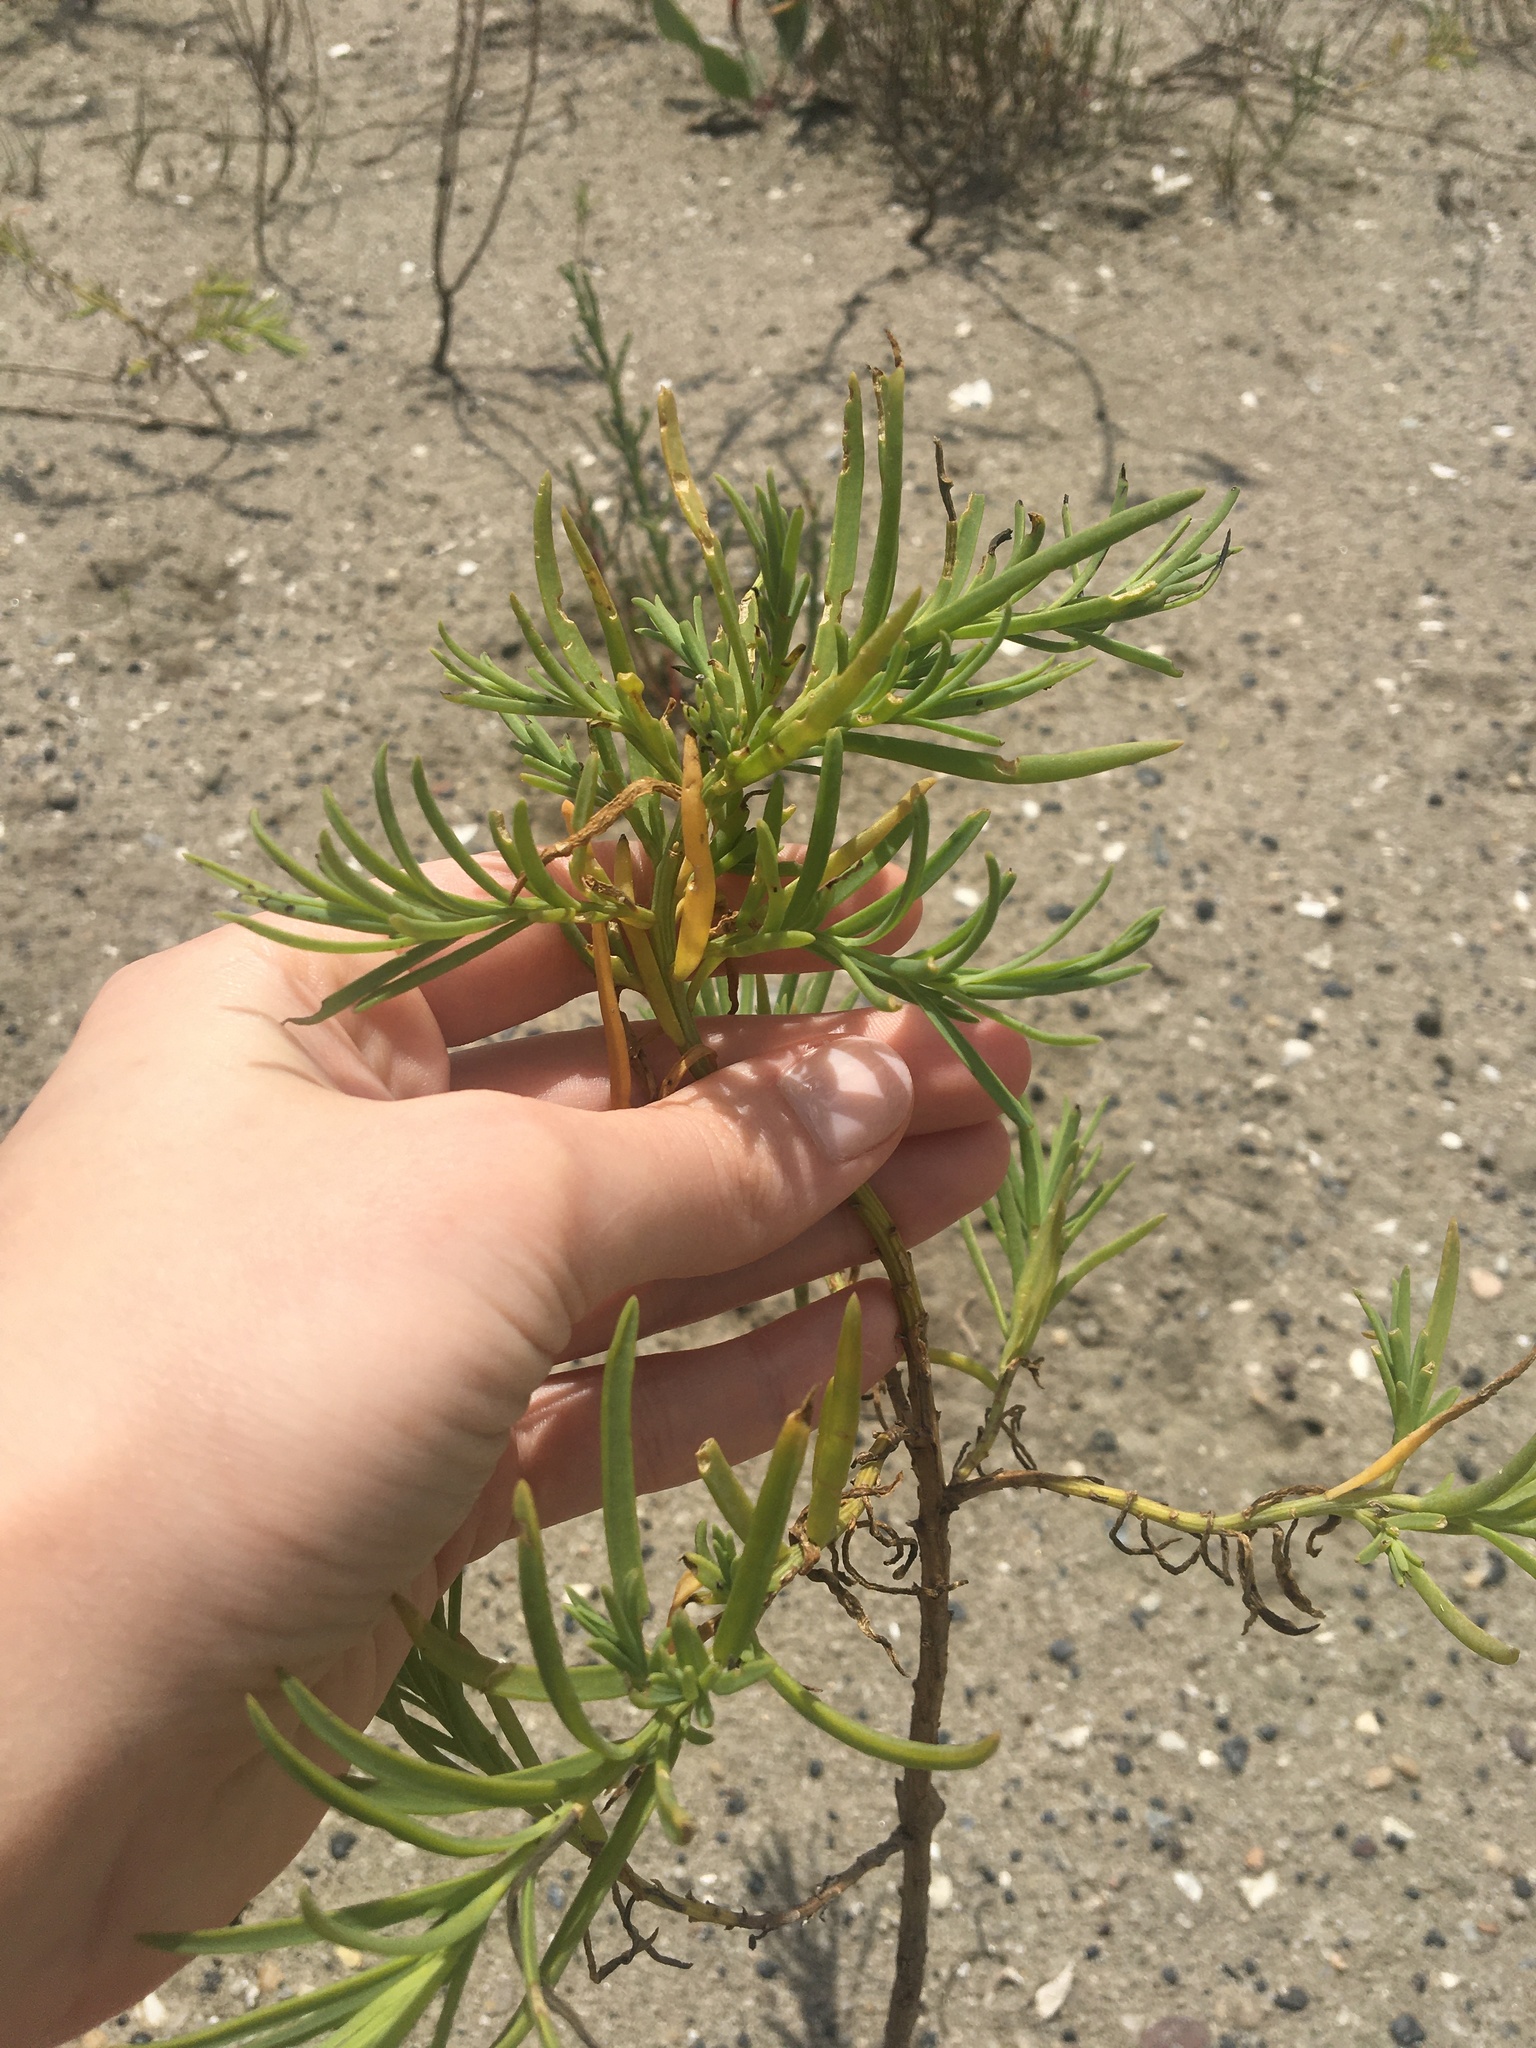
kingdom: Plantae
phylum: Tracheophyta
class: Magnoliopsida
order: Brassicales
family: Bataceae
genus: Batis
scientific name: Batis maritima
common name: Turtleweed
